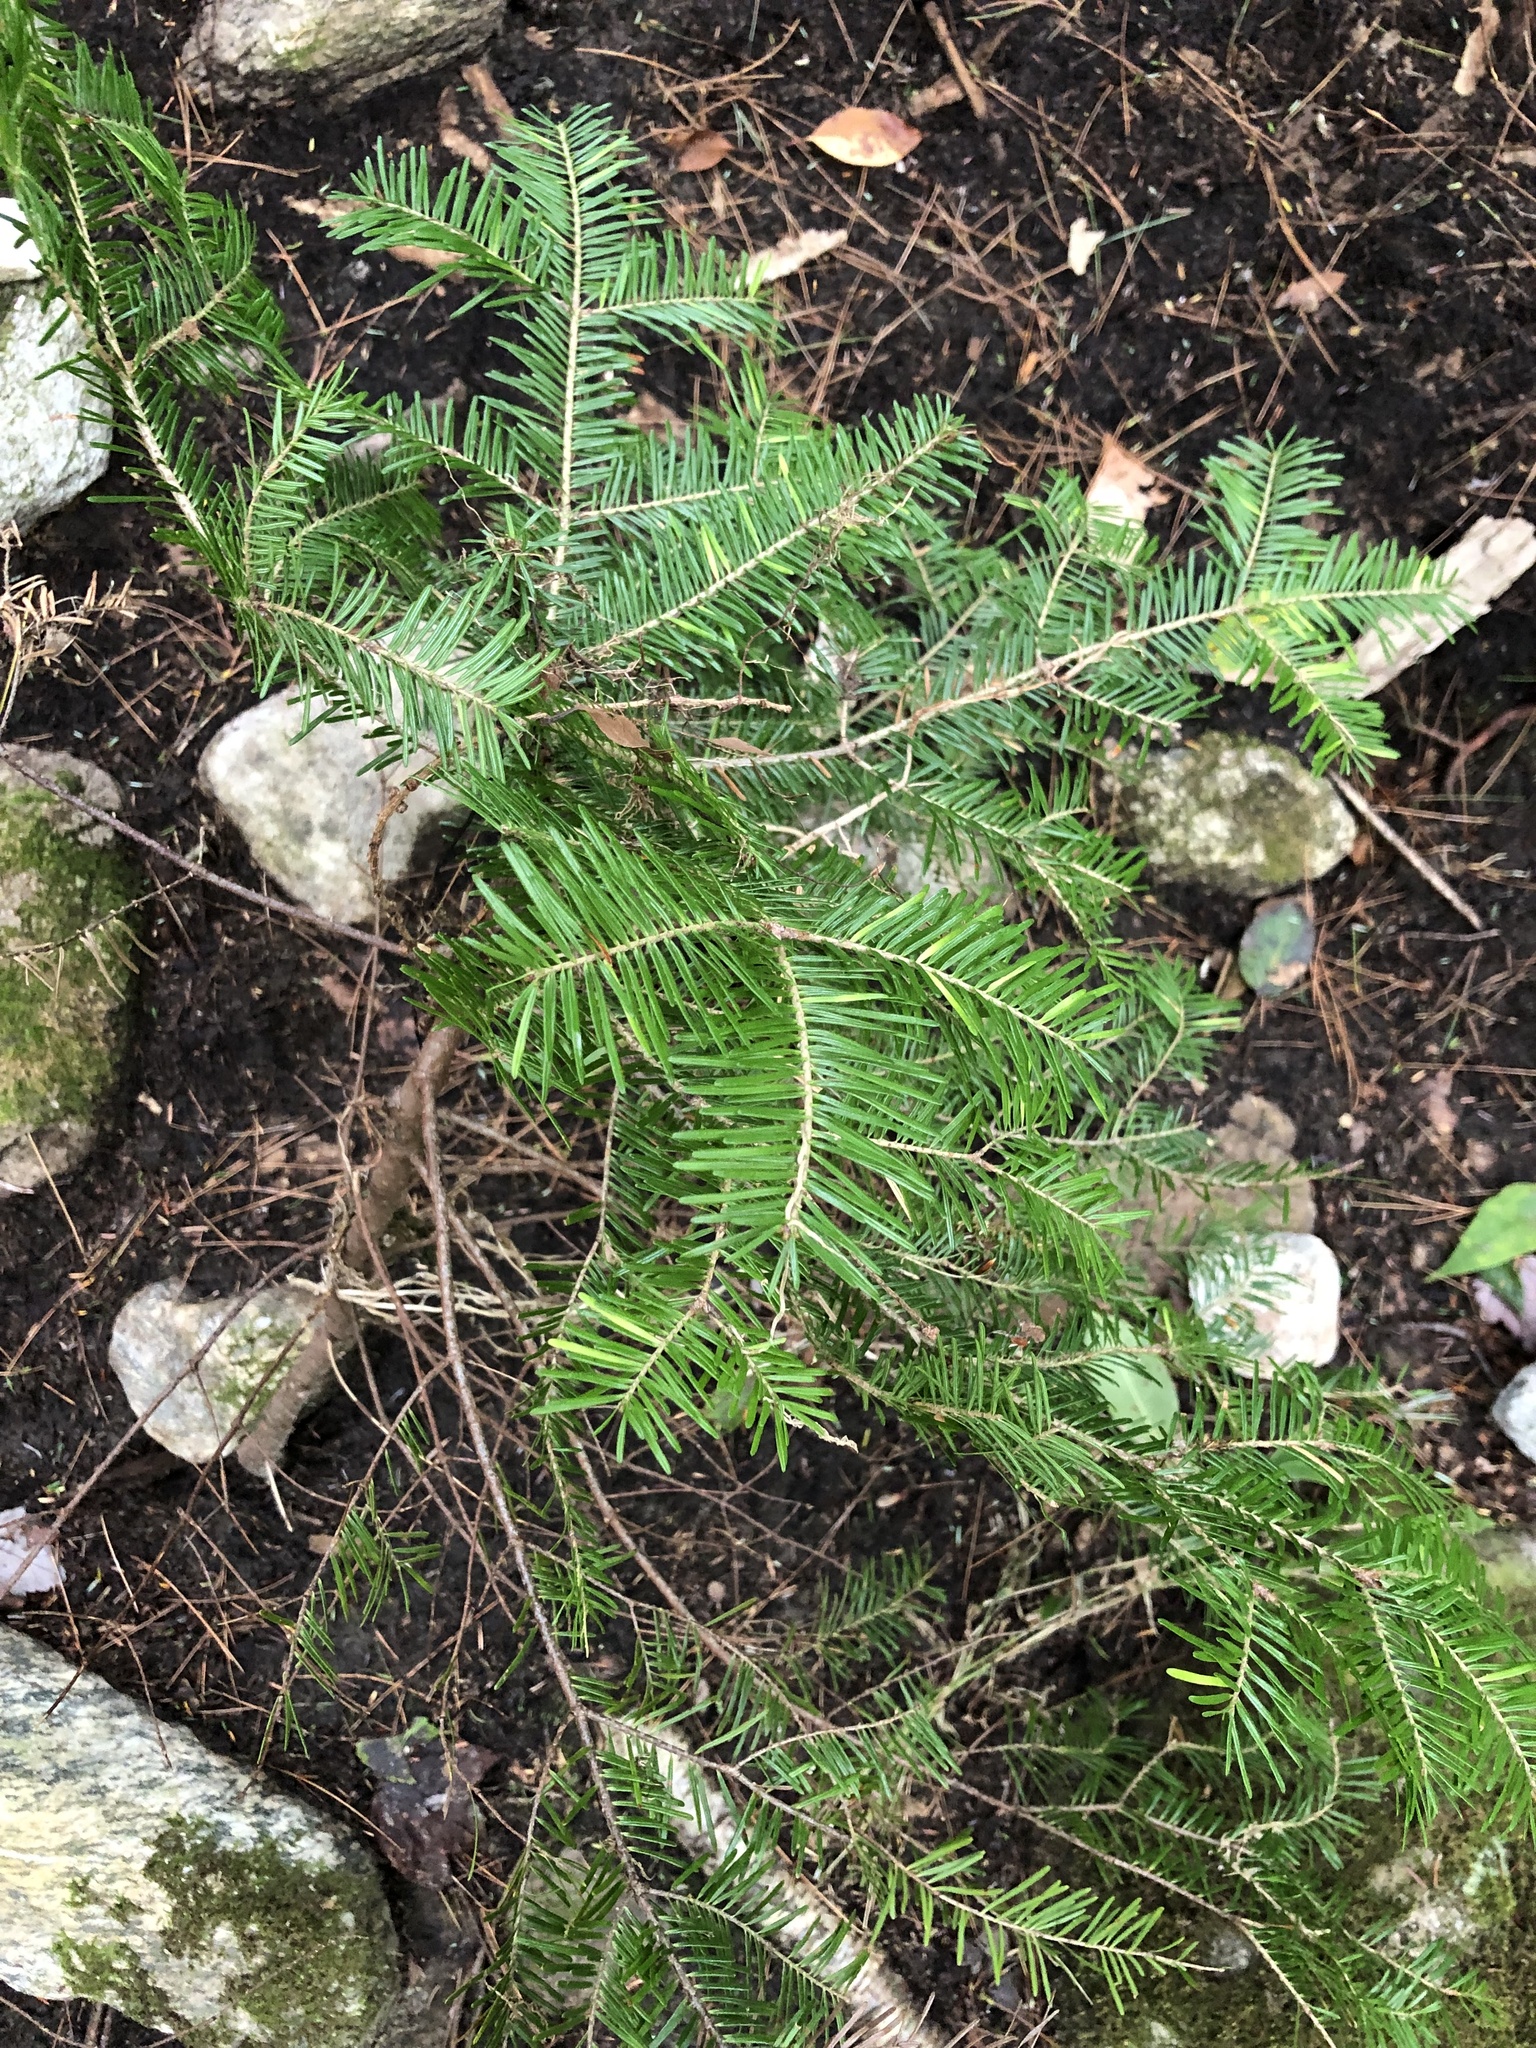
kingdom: Plantae
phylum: Tracheophyta
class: Pinopsida
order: Pinales
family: Pinaceae
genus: Abies
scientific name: Abies balsamea
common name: Balsam fir
